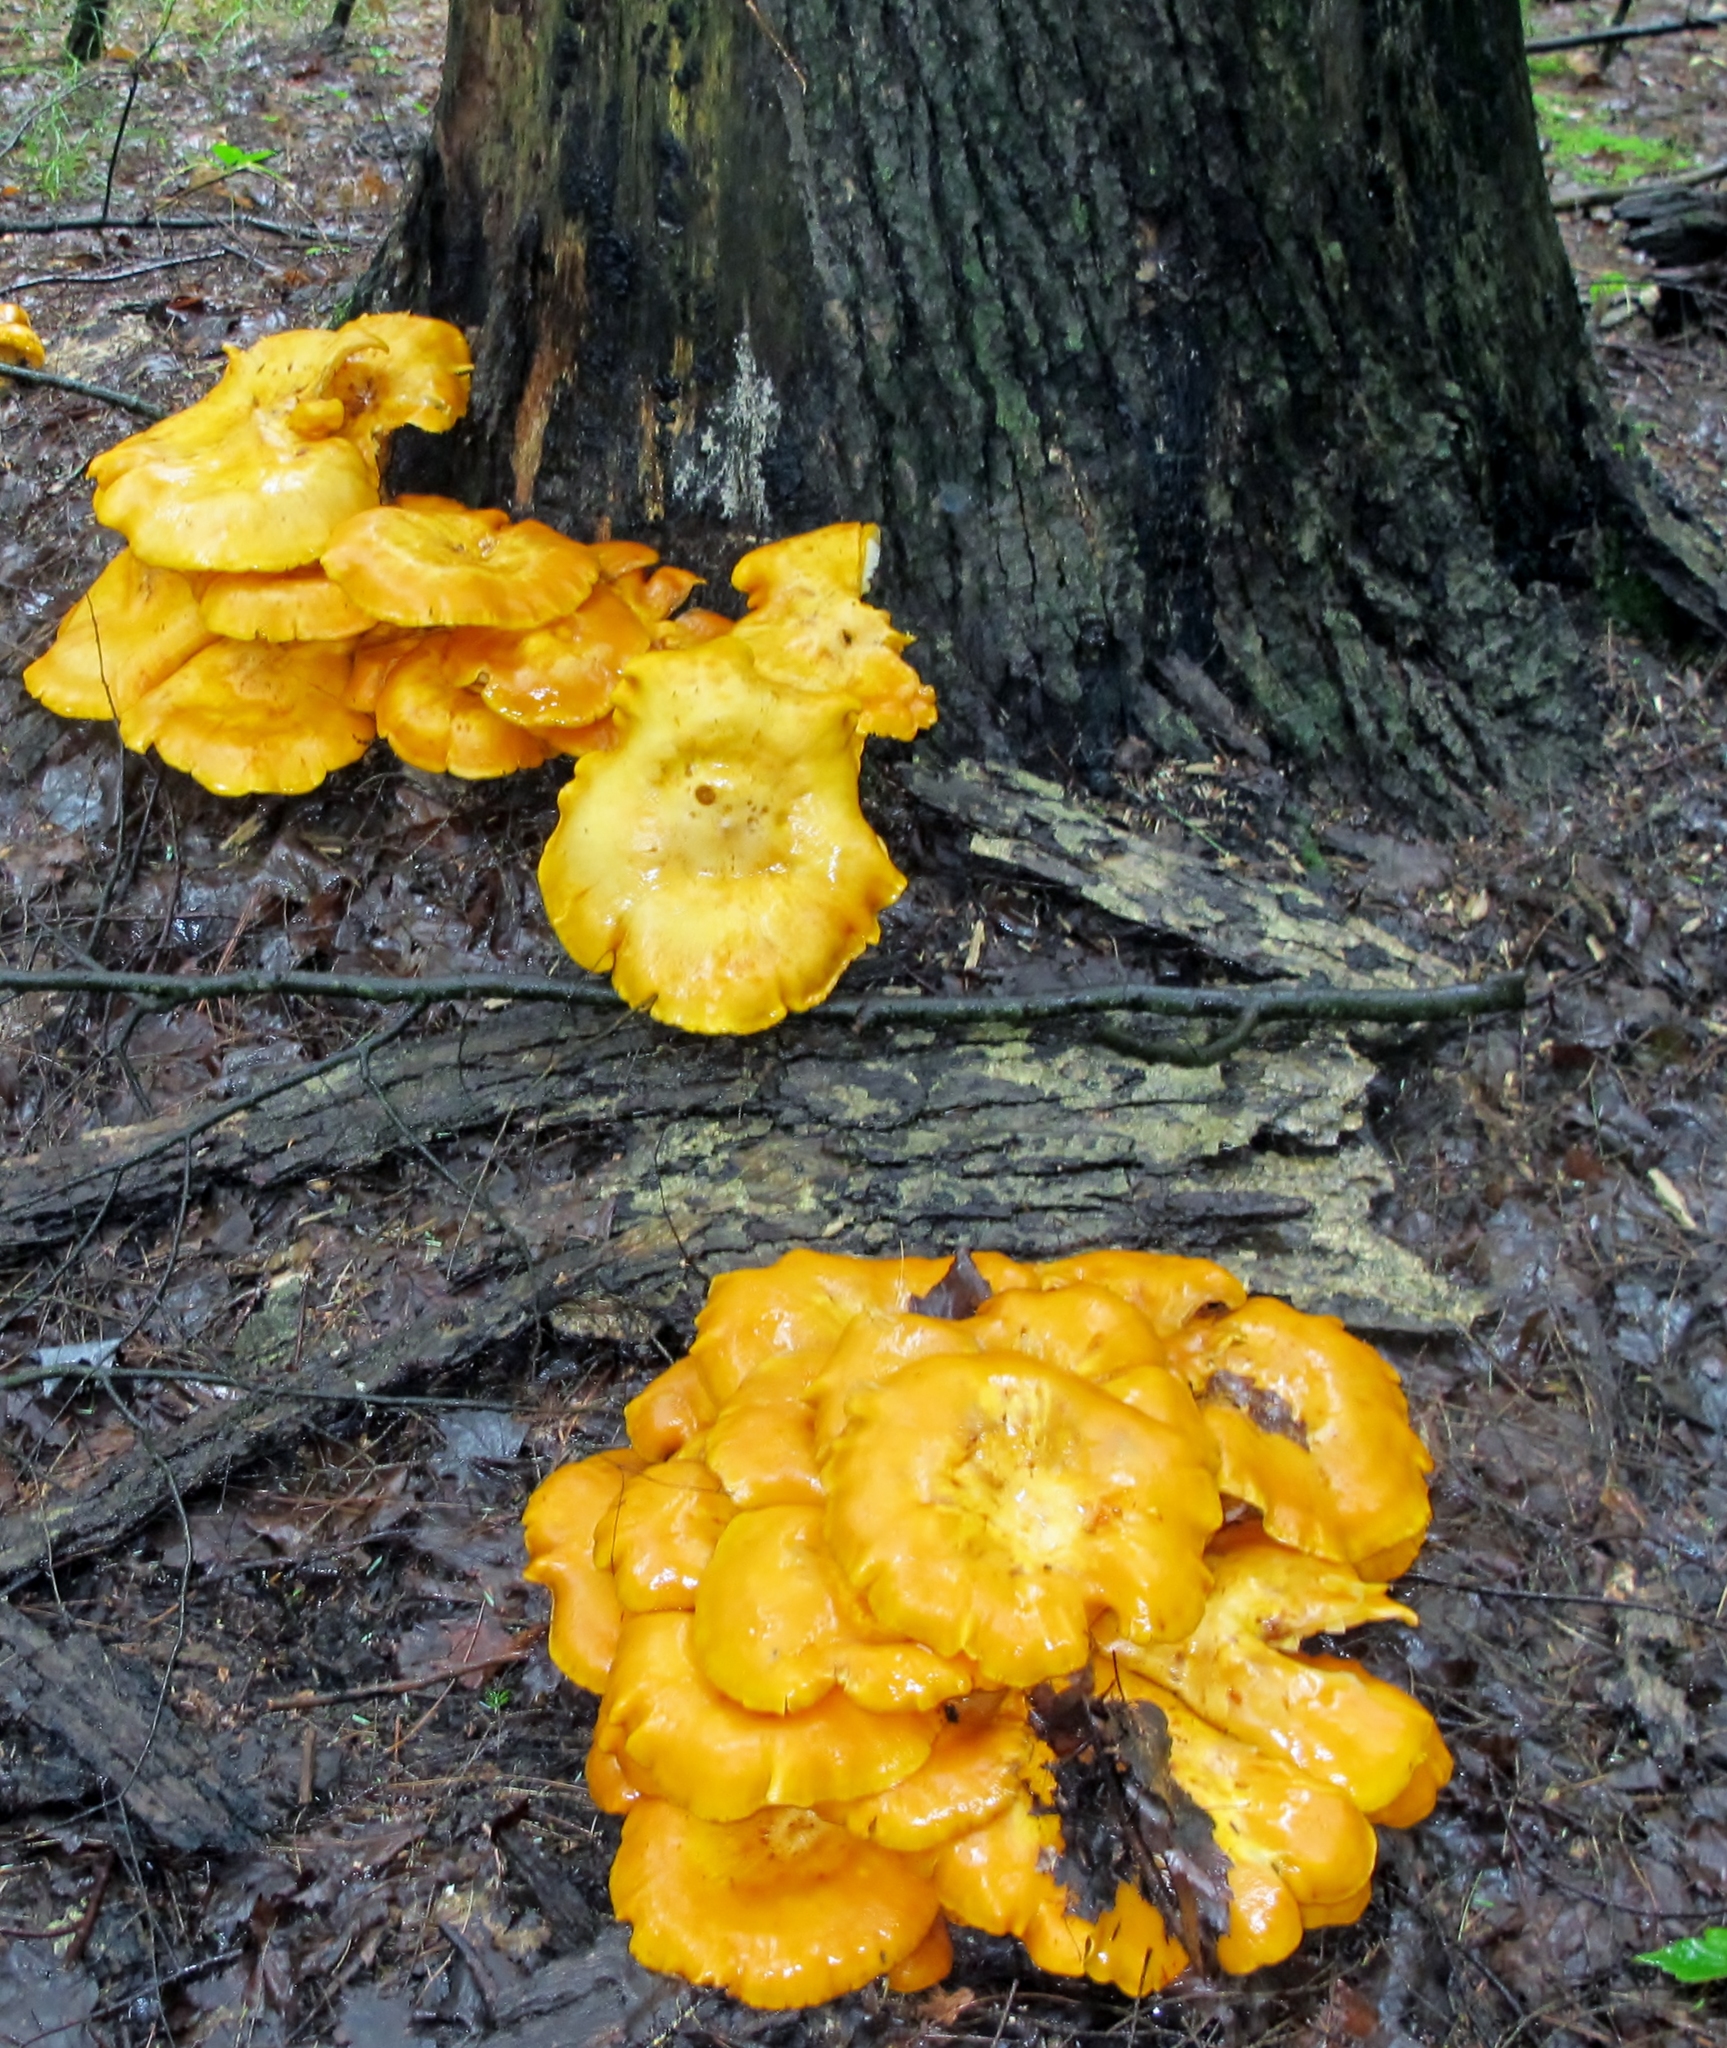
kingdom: Fungi
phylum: Basidiomycota
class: Agaricomycetes
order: Agaricales
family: Omphalotaceae
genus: Omphalotus
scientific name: Omphalotus illudens
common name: Jack o lantern
